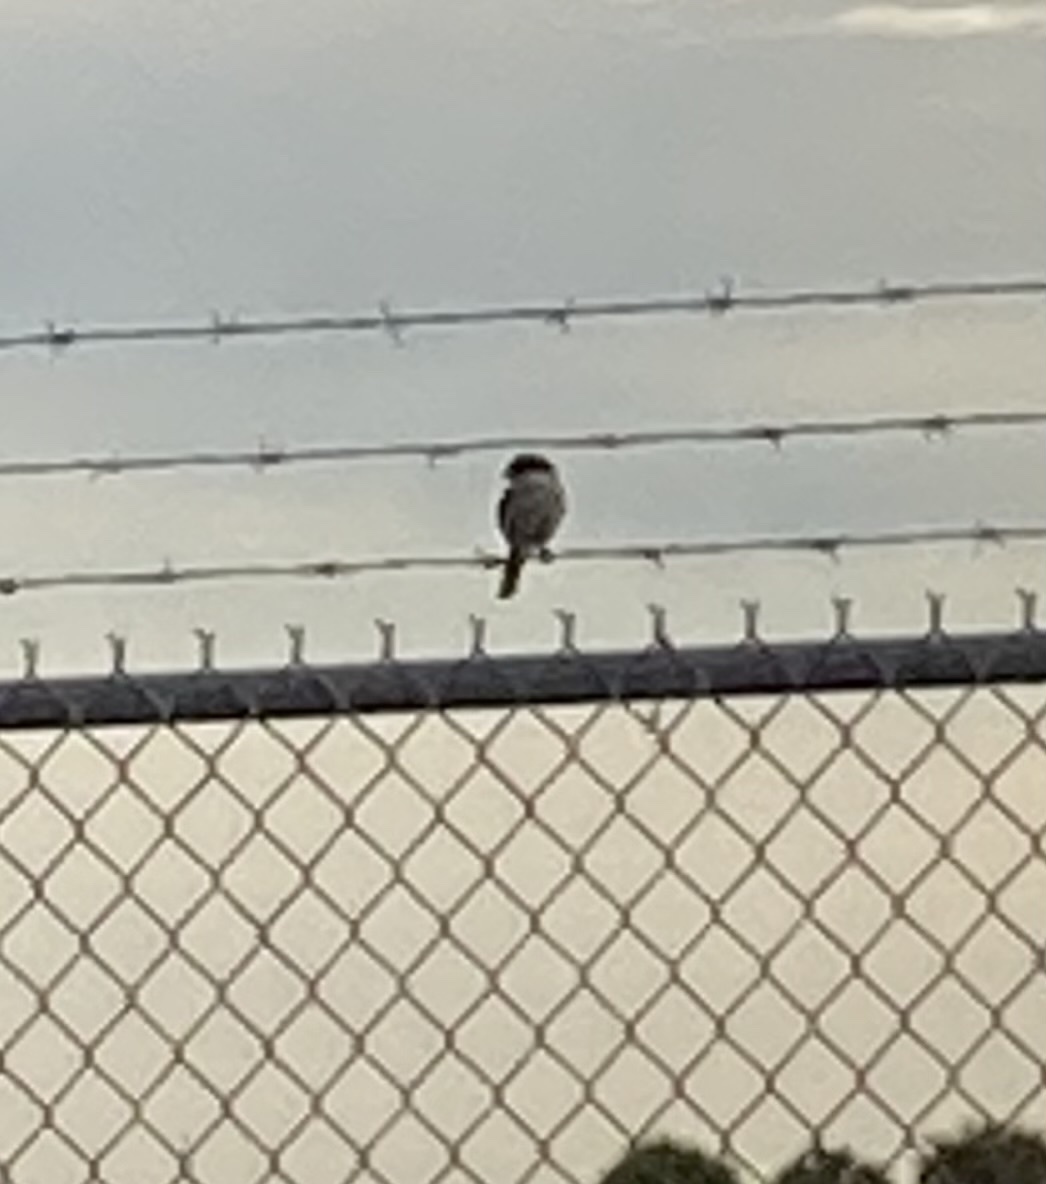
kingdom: Animalia
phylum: Chordata
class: Aves
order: Passeriformes
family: Laniidae
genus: Lanius
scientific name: Lanius ludovicianus
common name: Loggerhead shrike
